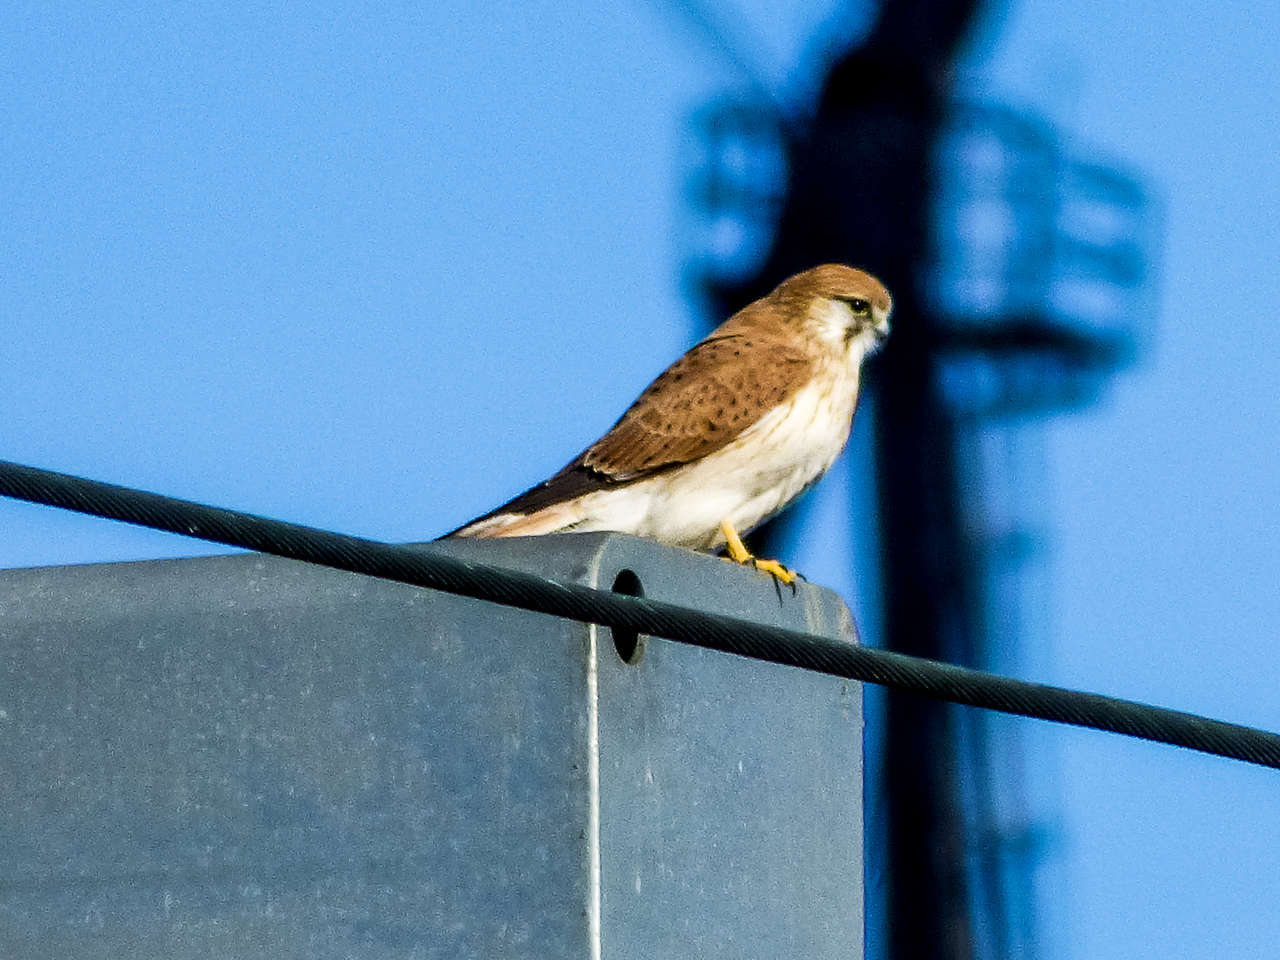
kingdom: Animalia
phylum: Chordata
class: Aves
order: Falconiformes
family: Falconidae
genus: Falco
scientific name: Falco cenchroides
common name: Nankeen kestrel
